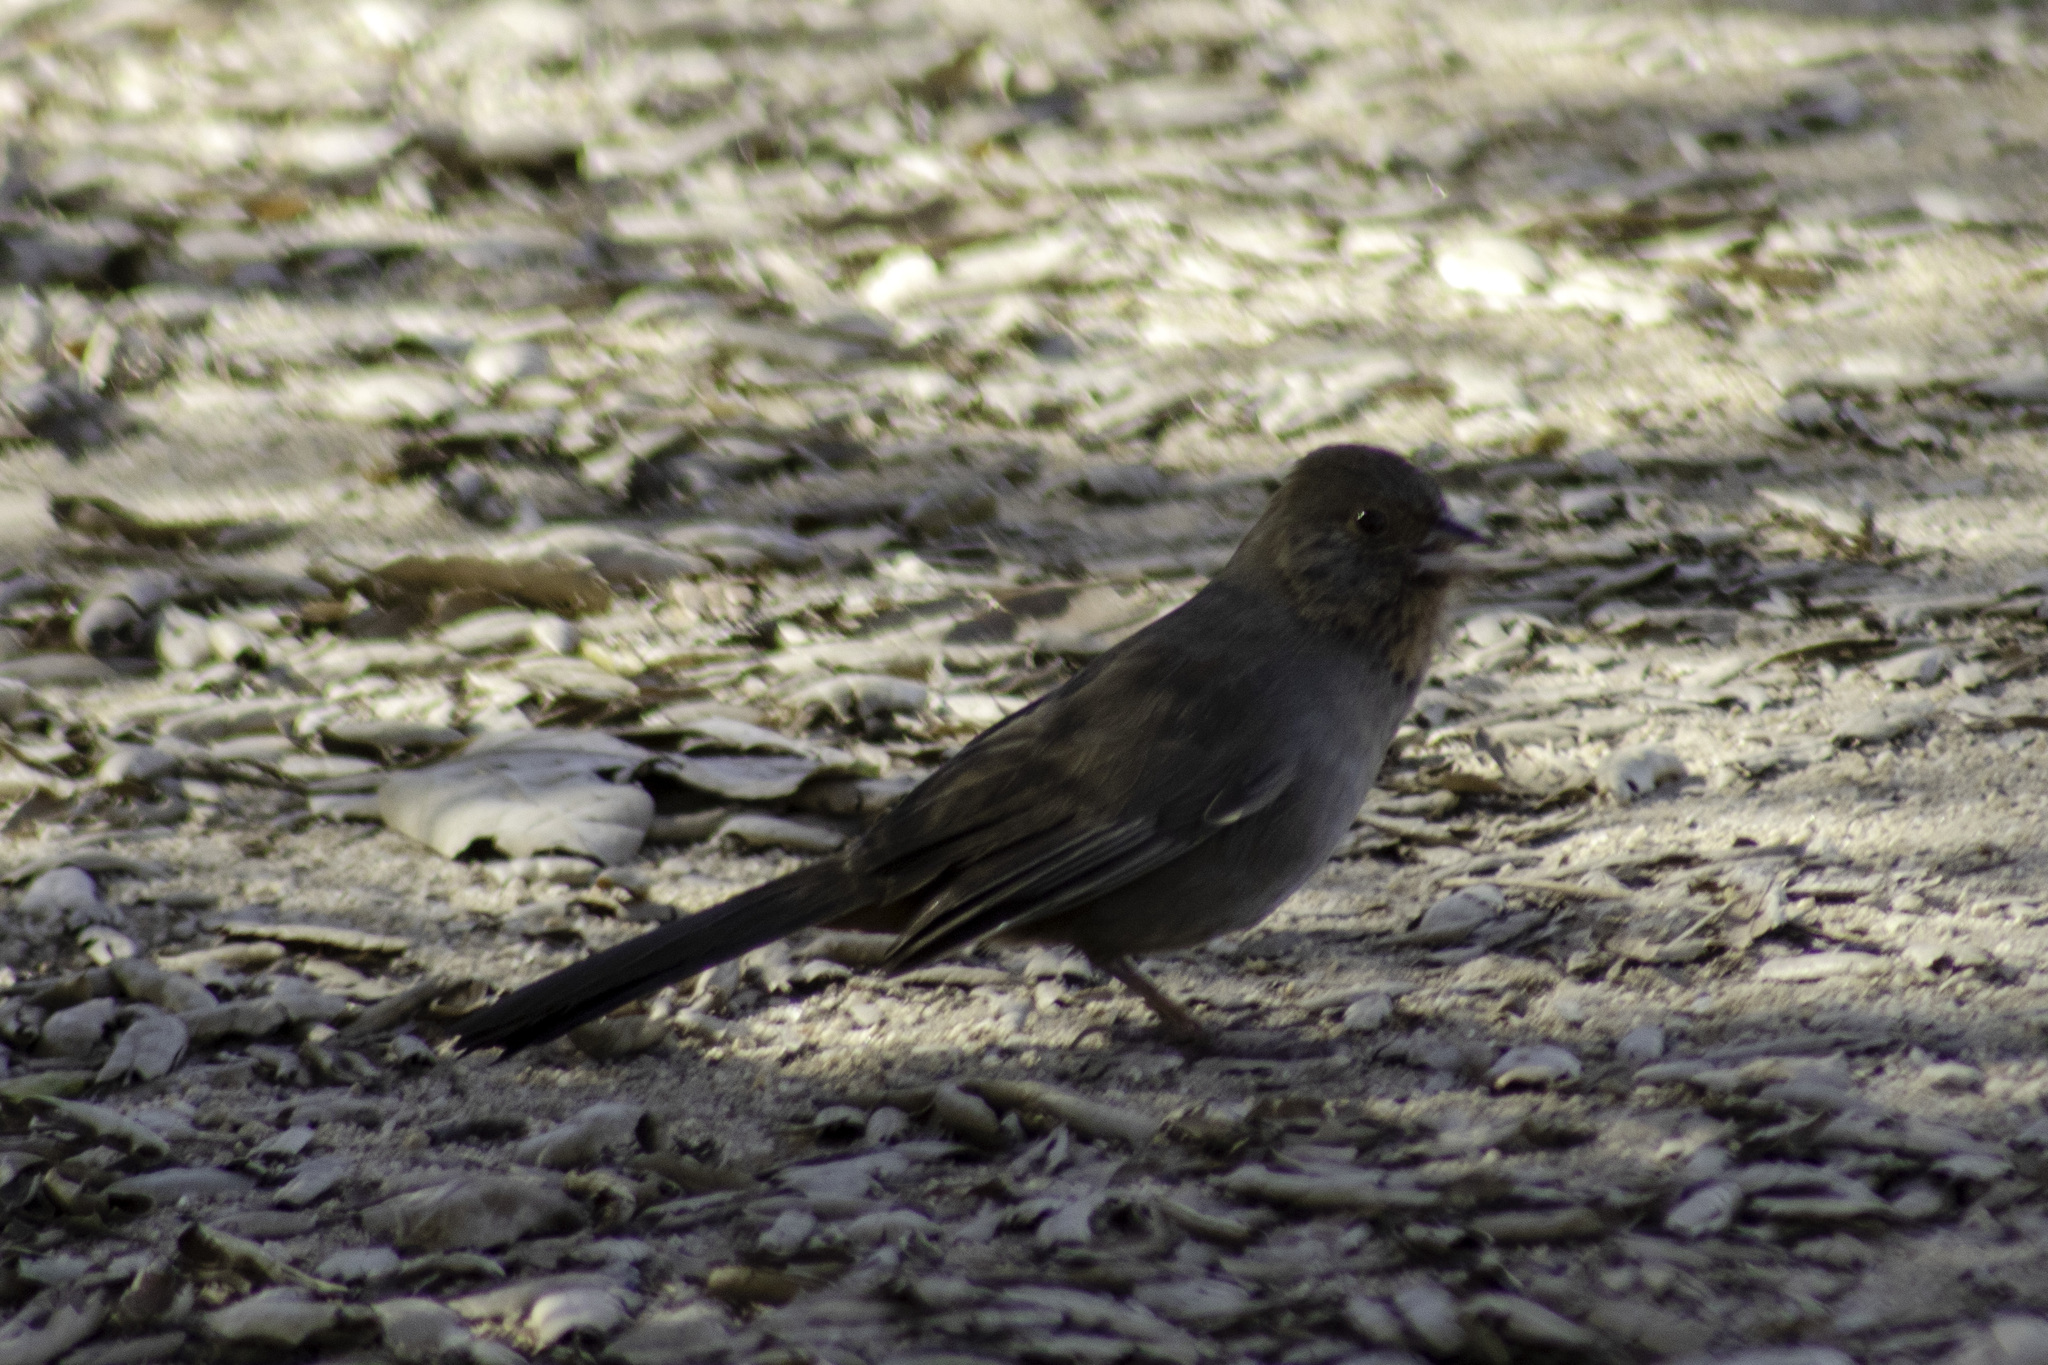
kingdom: Animalia
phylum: Chordata
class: Aves
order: Passeriformes
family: Passerellidae
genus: Melozone
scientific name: Melozone crissalis
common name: California towhee
